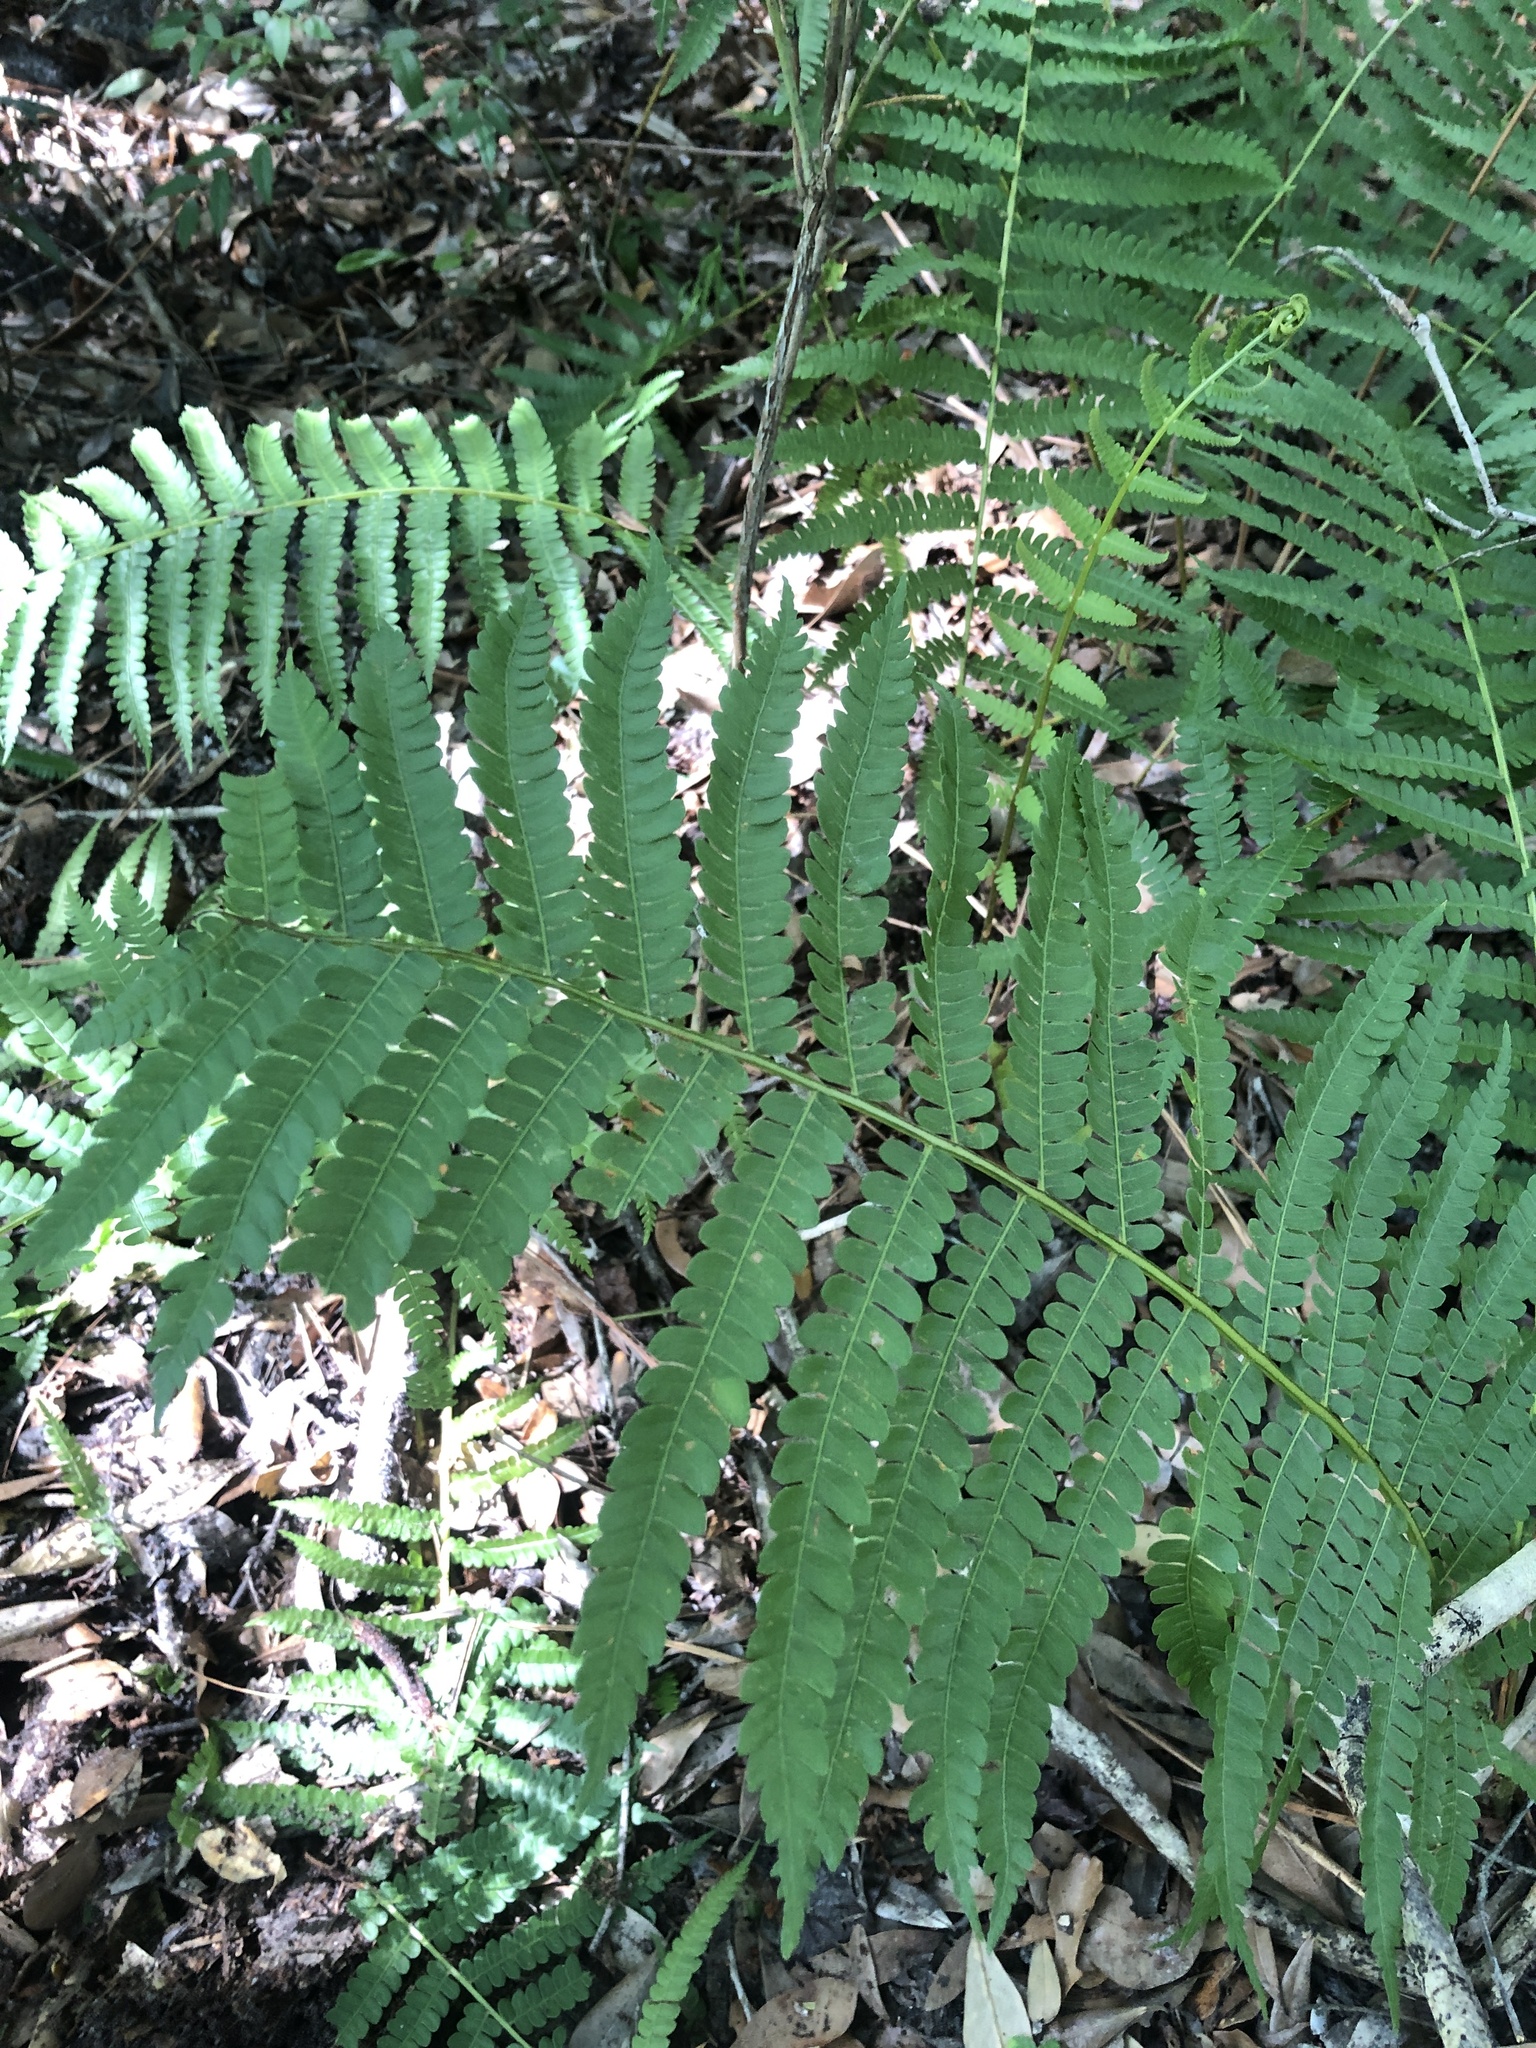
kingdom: Plantae
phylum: Tracheophyta
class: Polypodiopsida
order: Osmundales
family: Osmundaceae
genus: Osmundastrum
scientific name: Osmundastrum cinnamomeum
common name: Cinnamon fern
